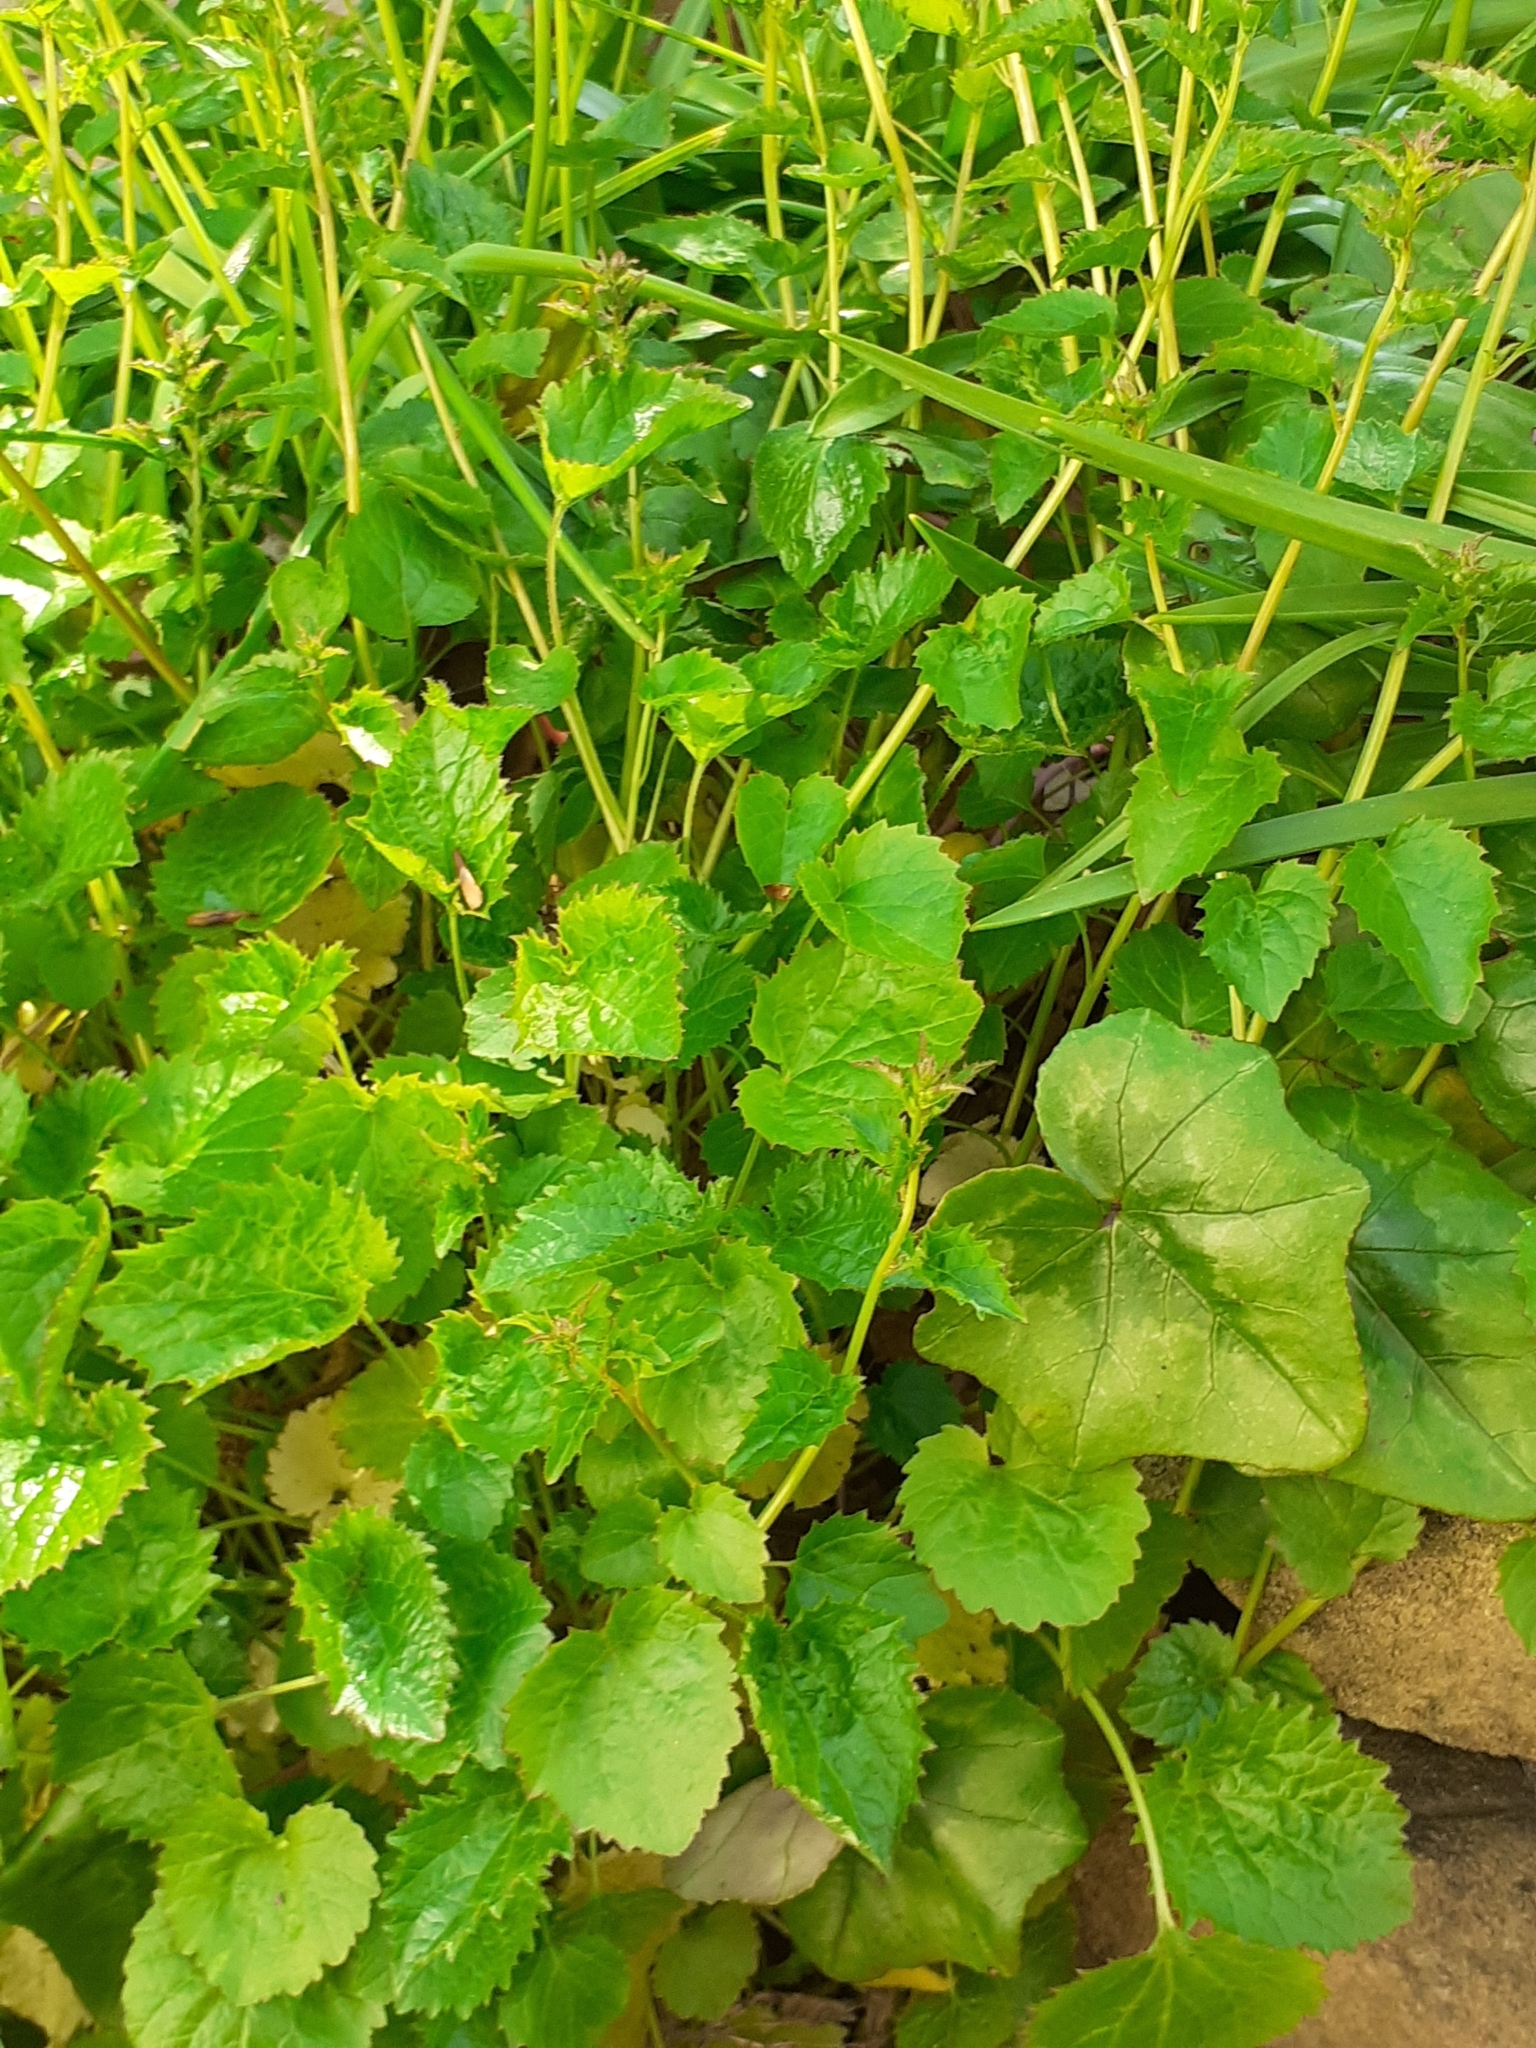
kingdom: Plantae
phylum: Tracheophyta
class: Magnoliopsida
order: Asterales
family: Campanulaceae
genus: Campanula
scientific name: Campanula poscharskyana
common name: Trailing bellflower
